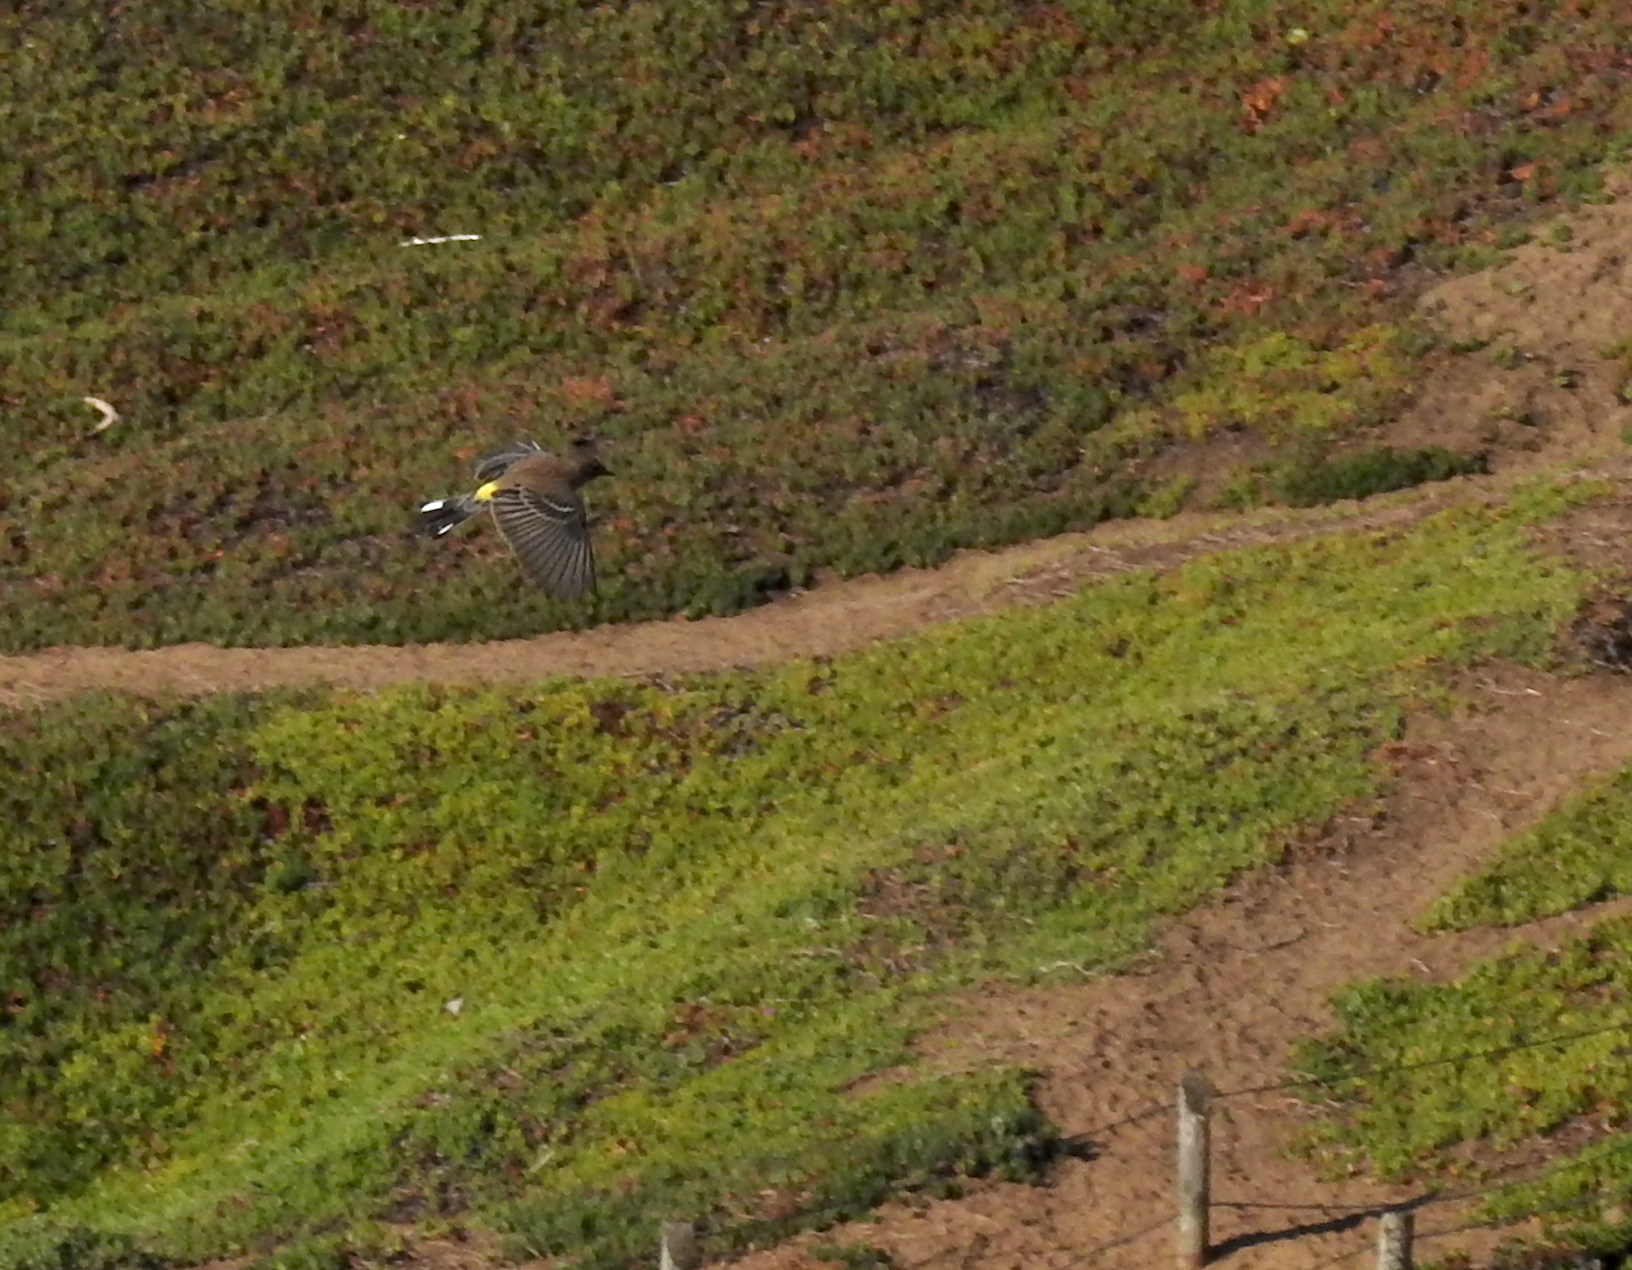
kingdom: Animalia
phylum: Chordata
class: Aves
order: Passeriformes
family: Parulidae
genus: Setophaga
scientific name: Setophaga auduboni
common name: Audubon's warbler
